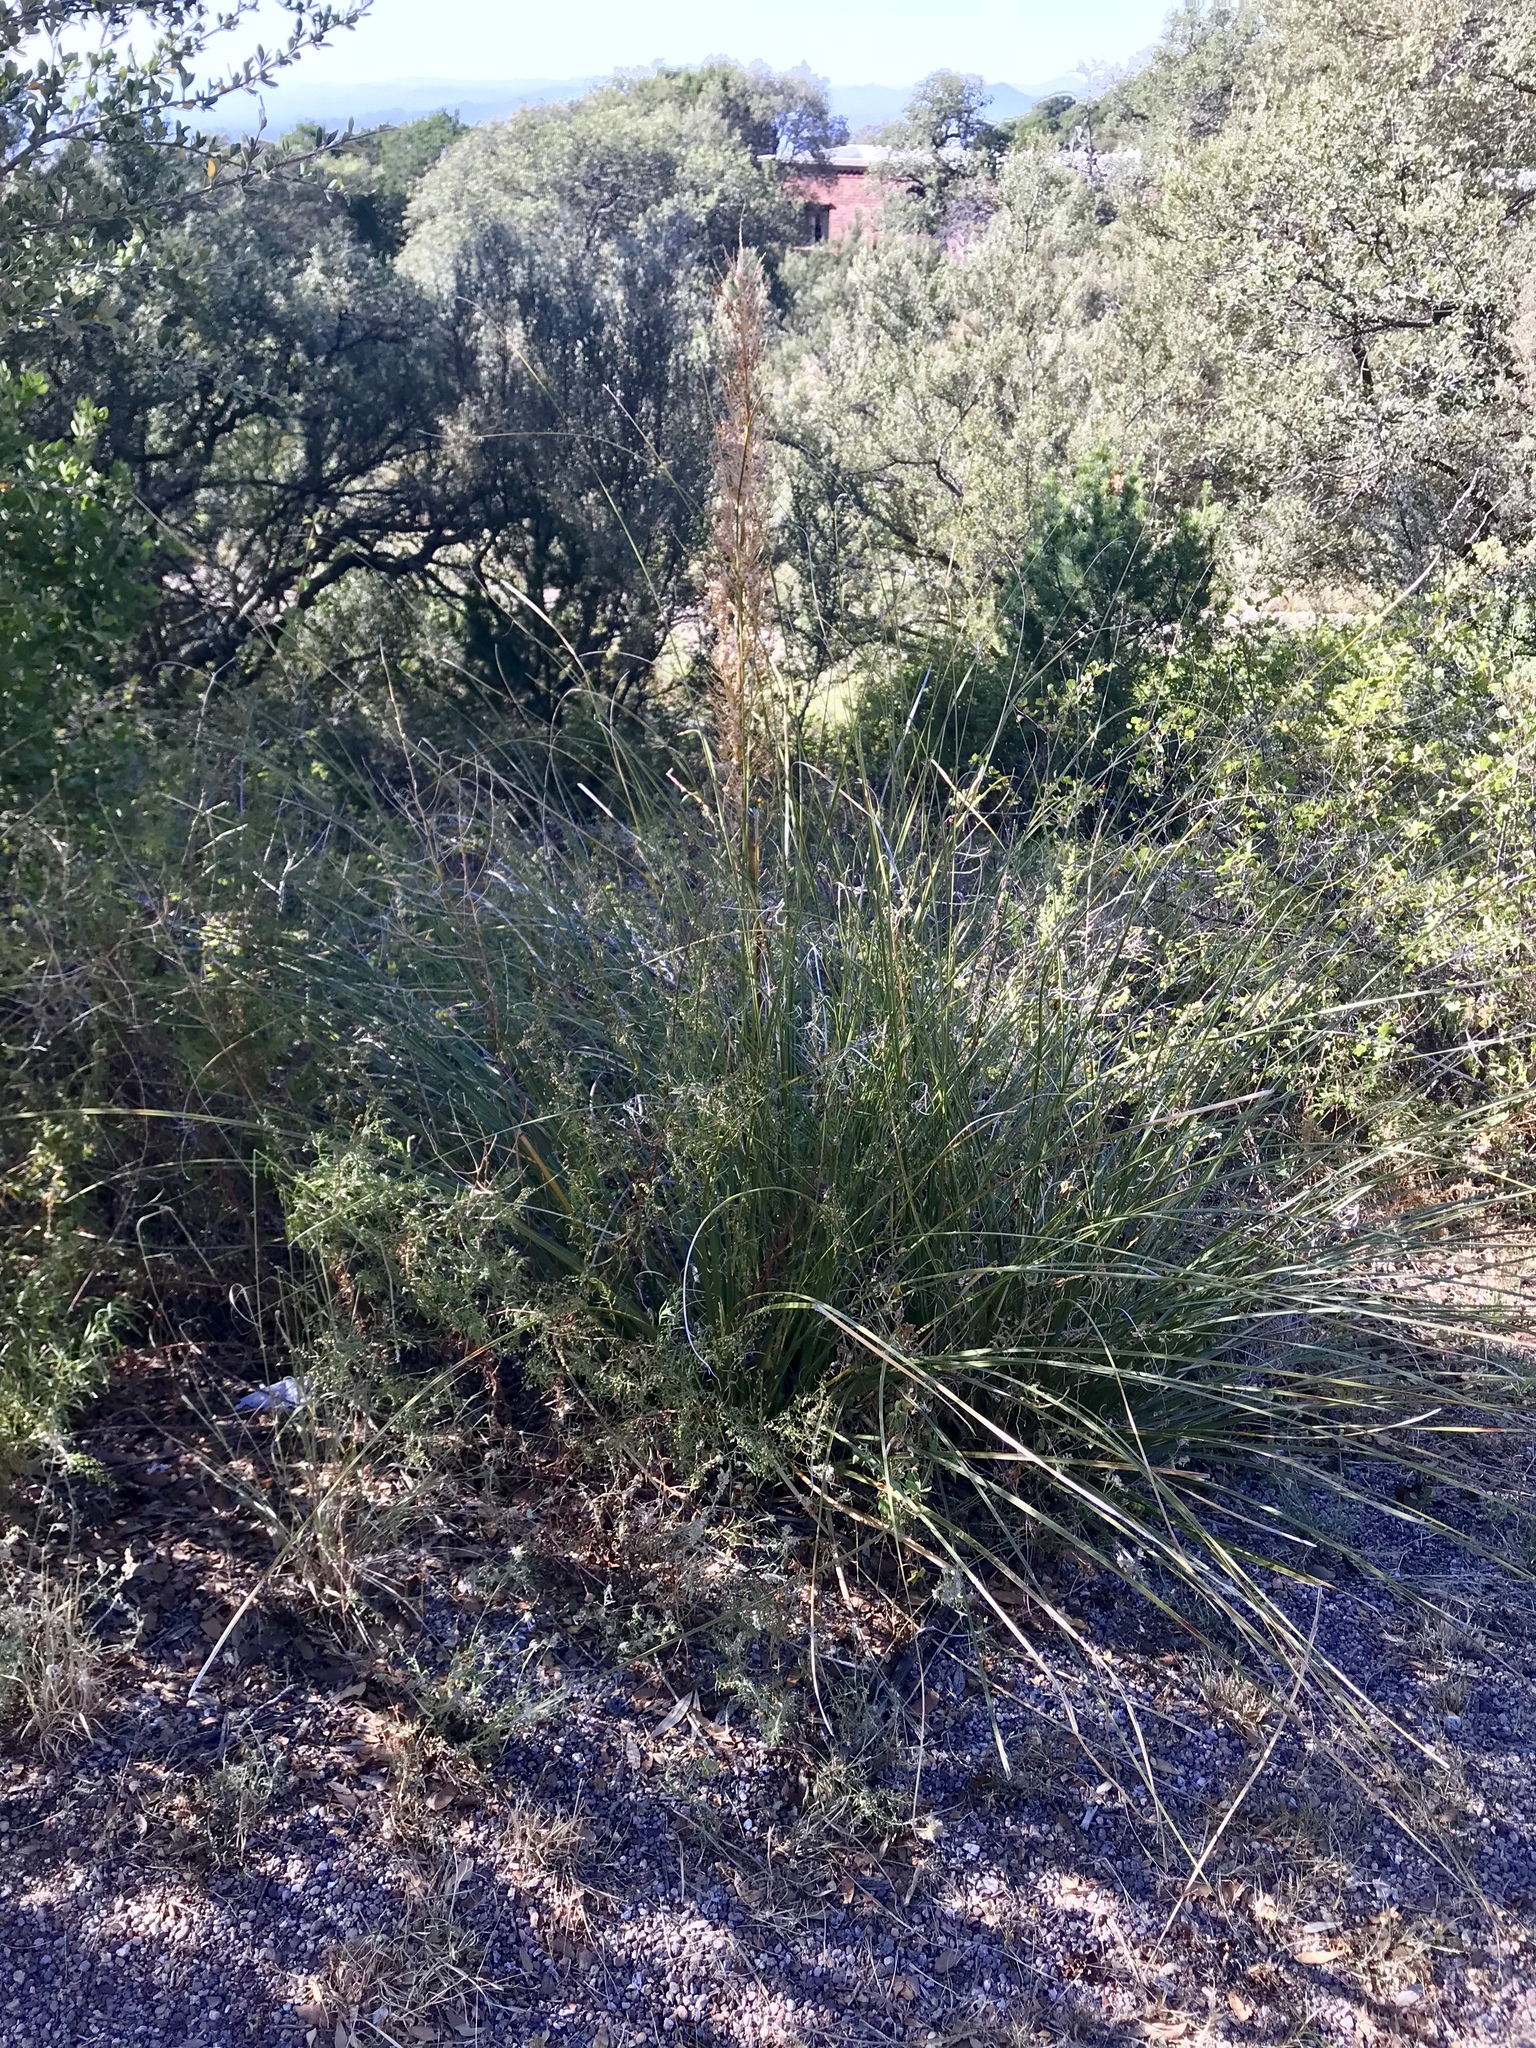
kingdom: Plantae
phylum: Tracheophyta
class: Liliopsida
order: Asparagales
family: Asparagaceae
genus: Nolina
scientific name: Nolina microcarpa
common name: Bear-grass
